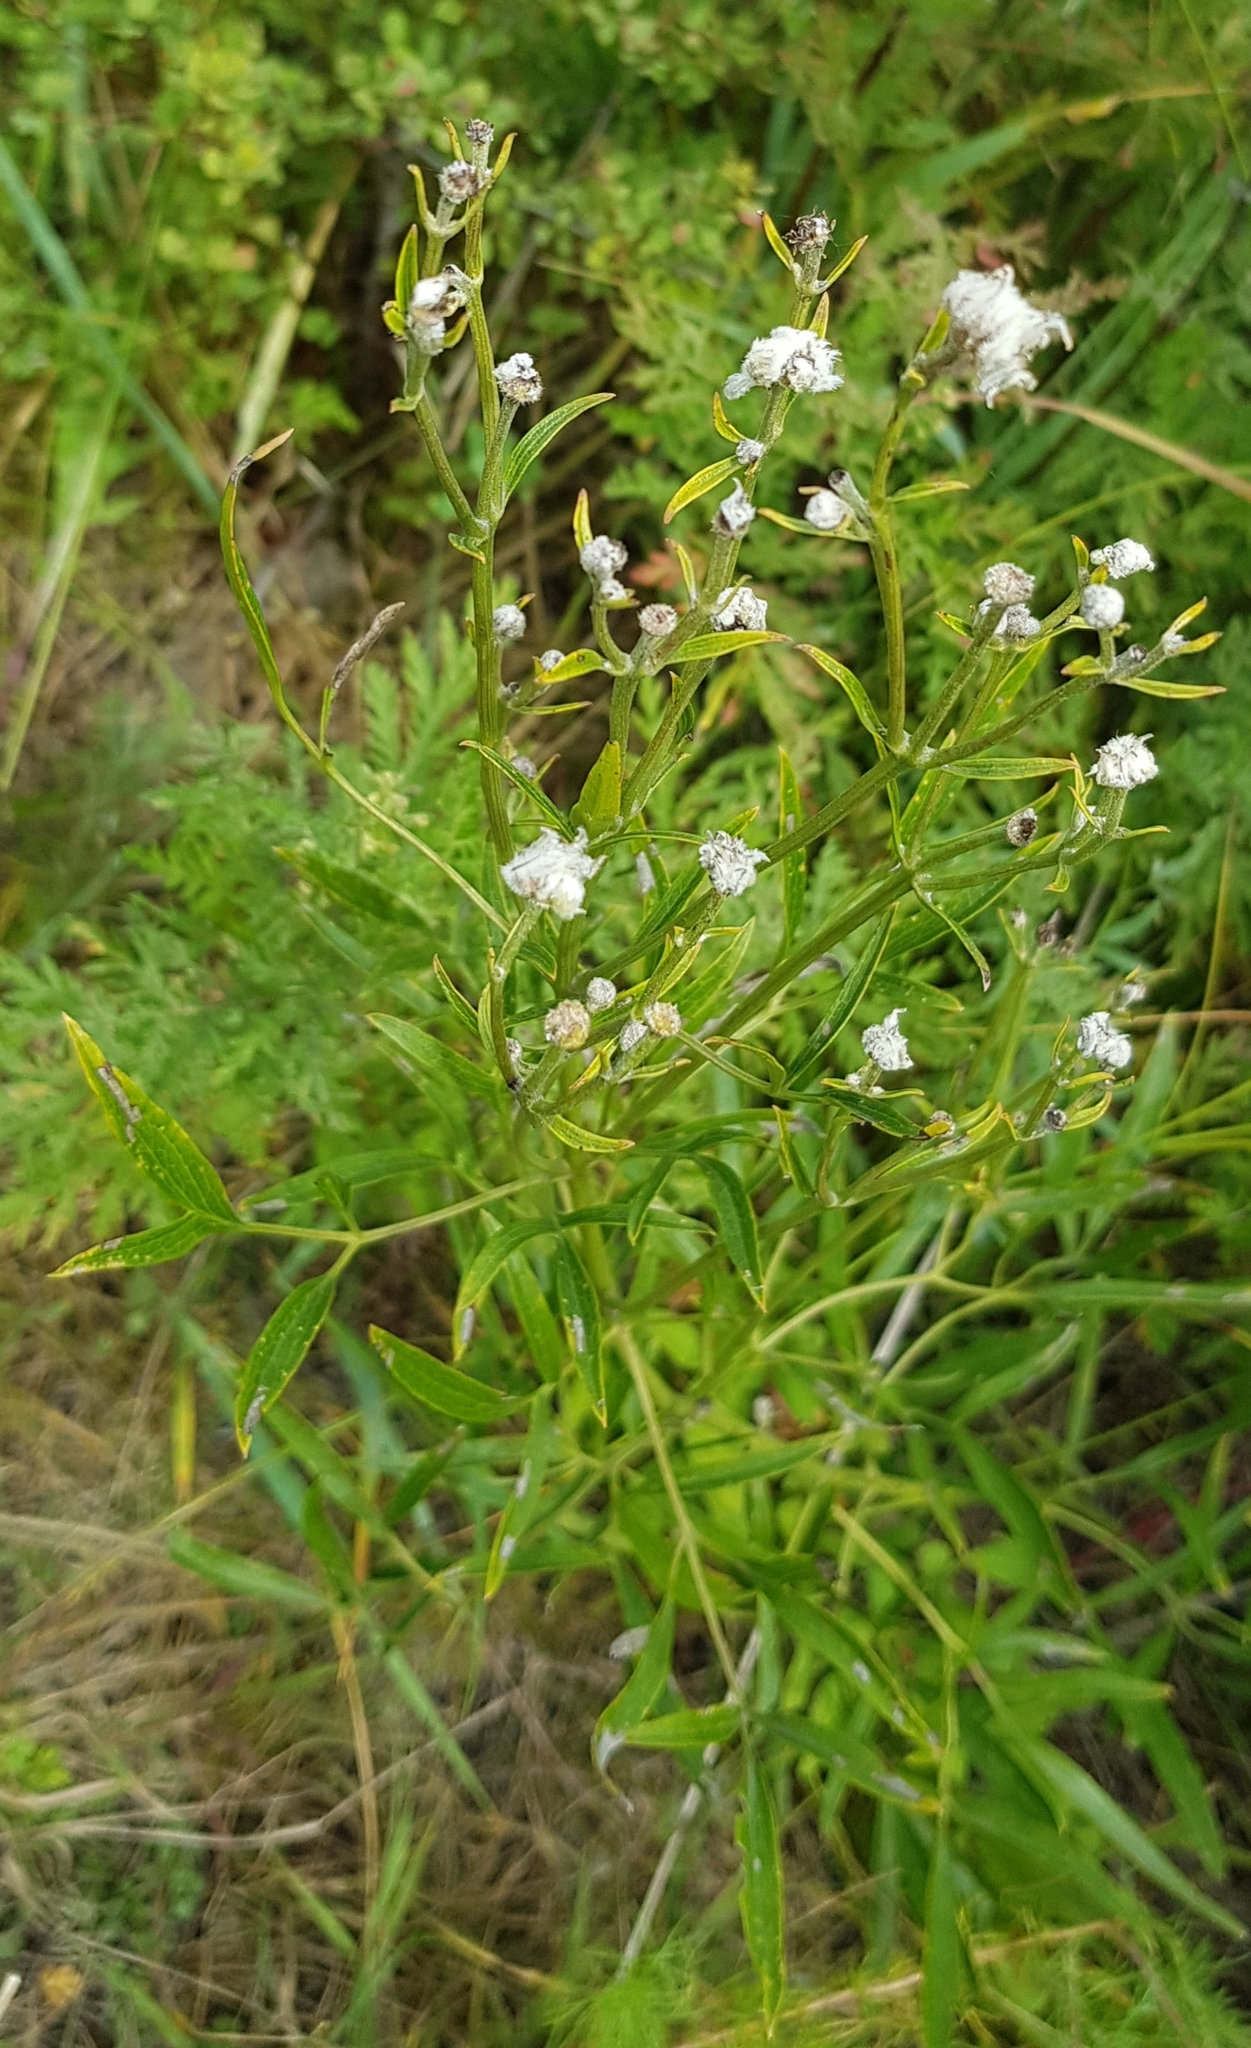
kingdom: Plantae
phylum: Tracheophyta
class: Magnoliopsida
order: Ranunculales
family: Ranunculaceae
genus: Clematis
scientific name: Clematis hexapetala
